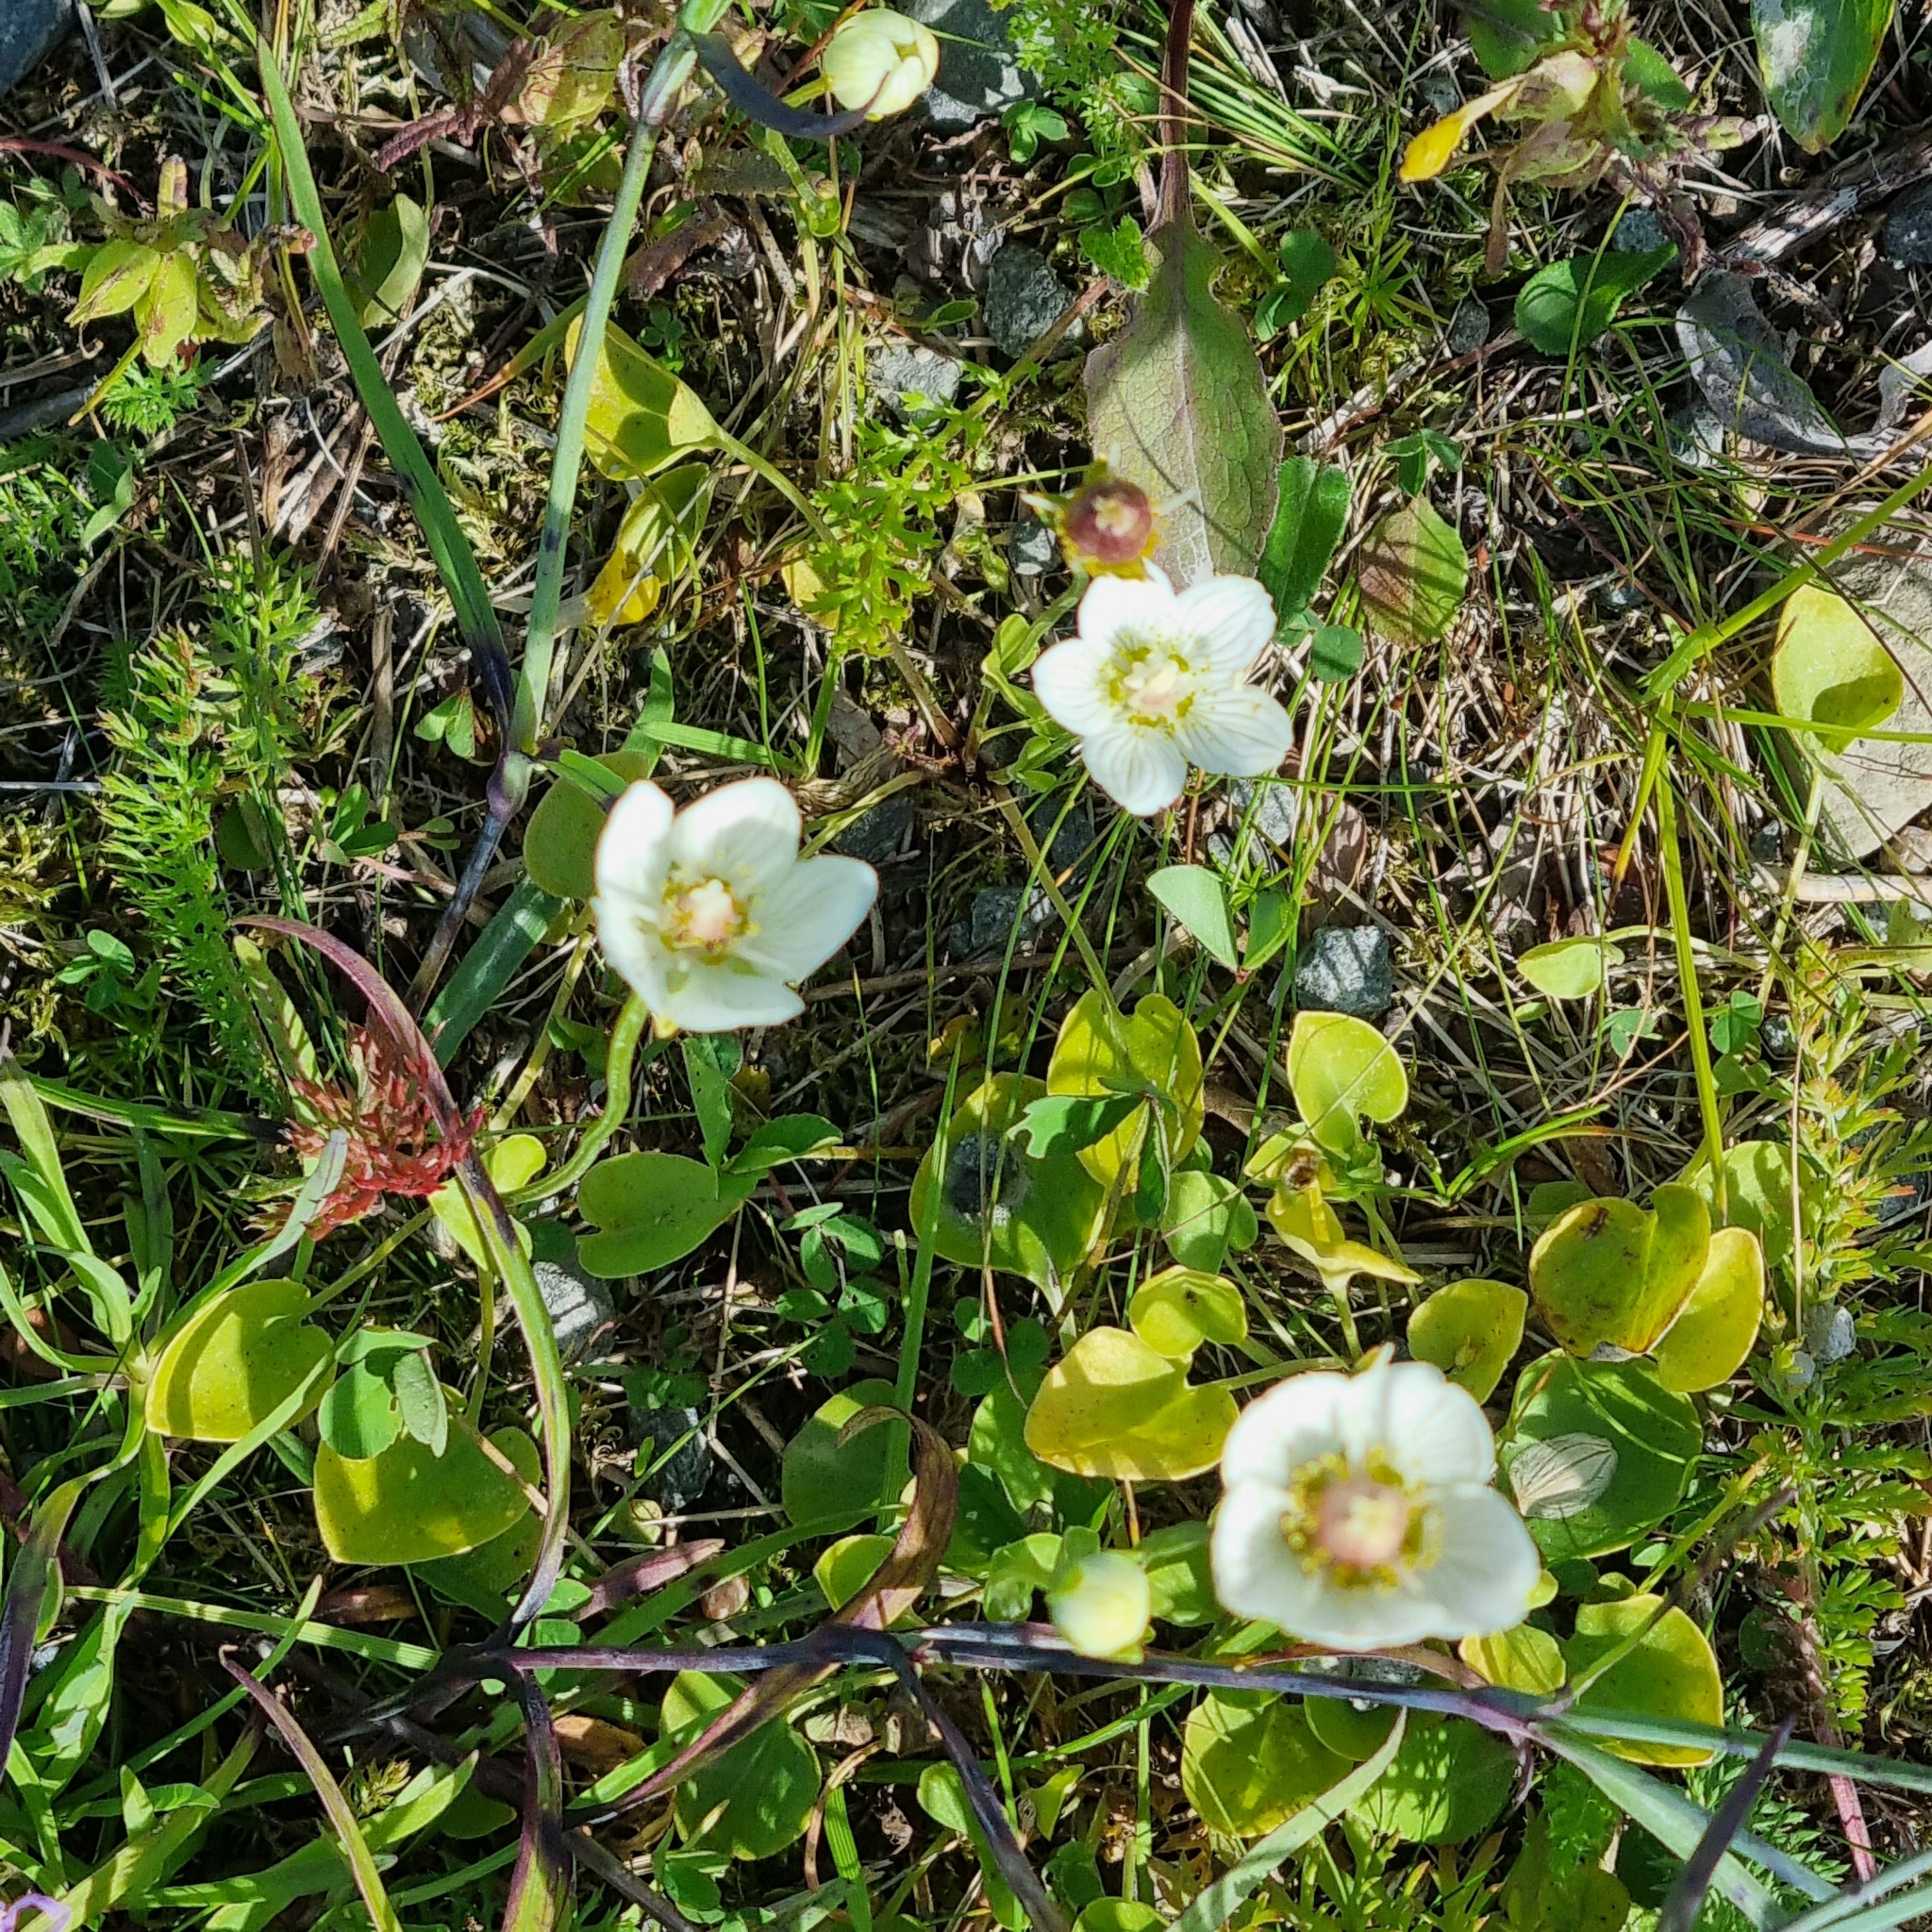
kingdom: Plantae
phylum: Tracheophyta
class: Magnoliopsida
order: Celastrales
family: Parnassiaceae
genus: Parnassia
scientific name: Parnassia palustris
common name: Grass-of-parnassus
